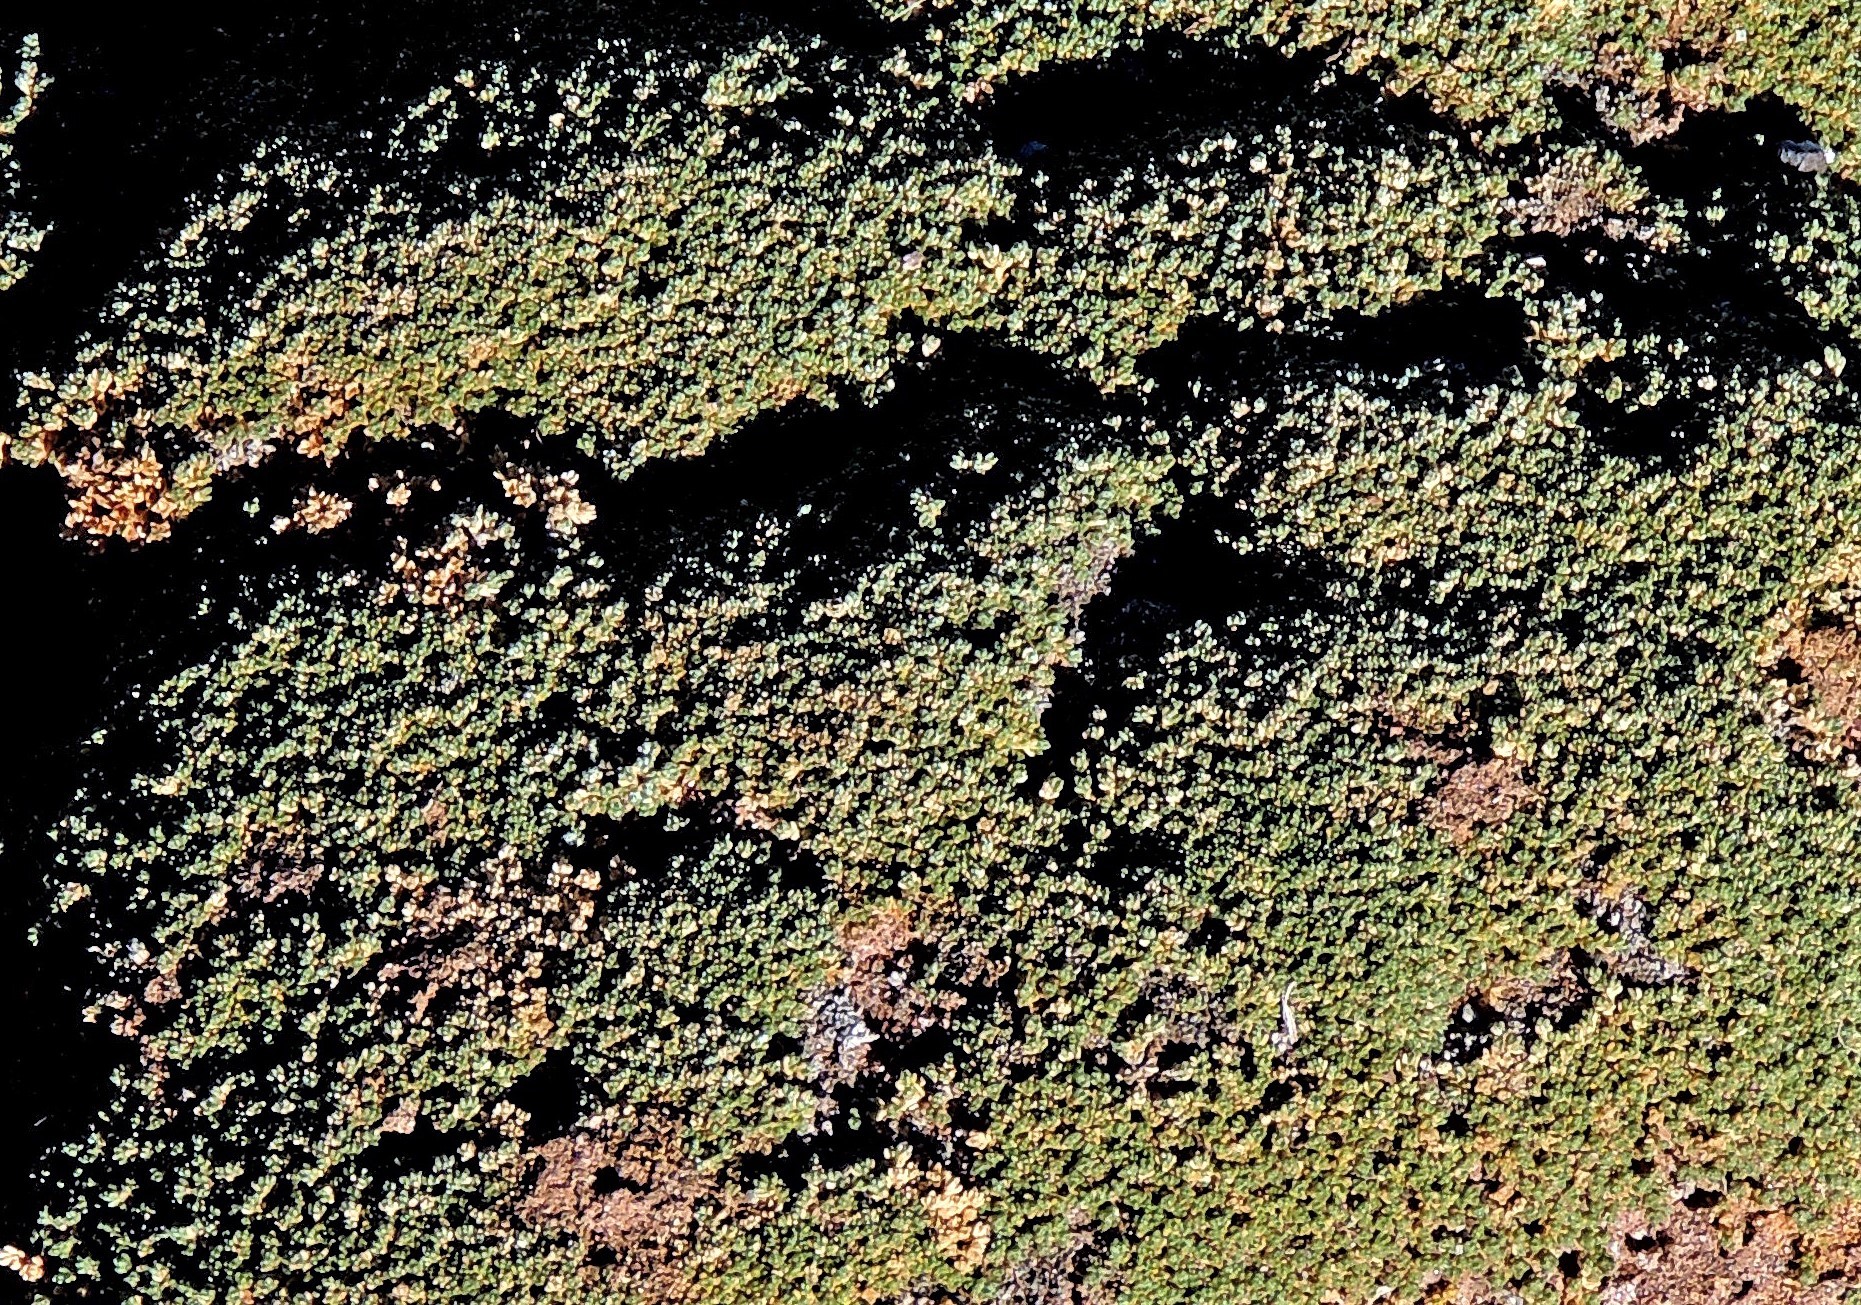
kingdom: Plantae
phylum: Tracheophyta
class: Magnoliopsida
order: Caryophyllales
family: Frankeniaceae
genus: Frankenia
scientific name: Frankenia triandra
